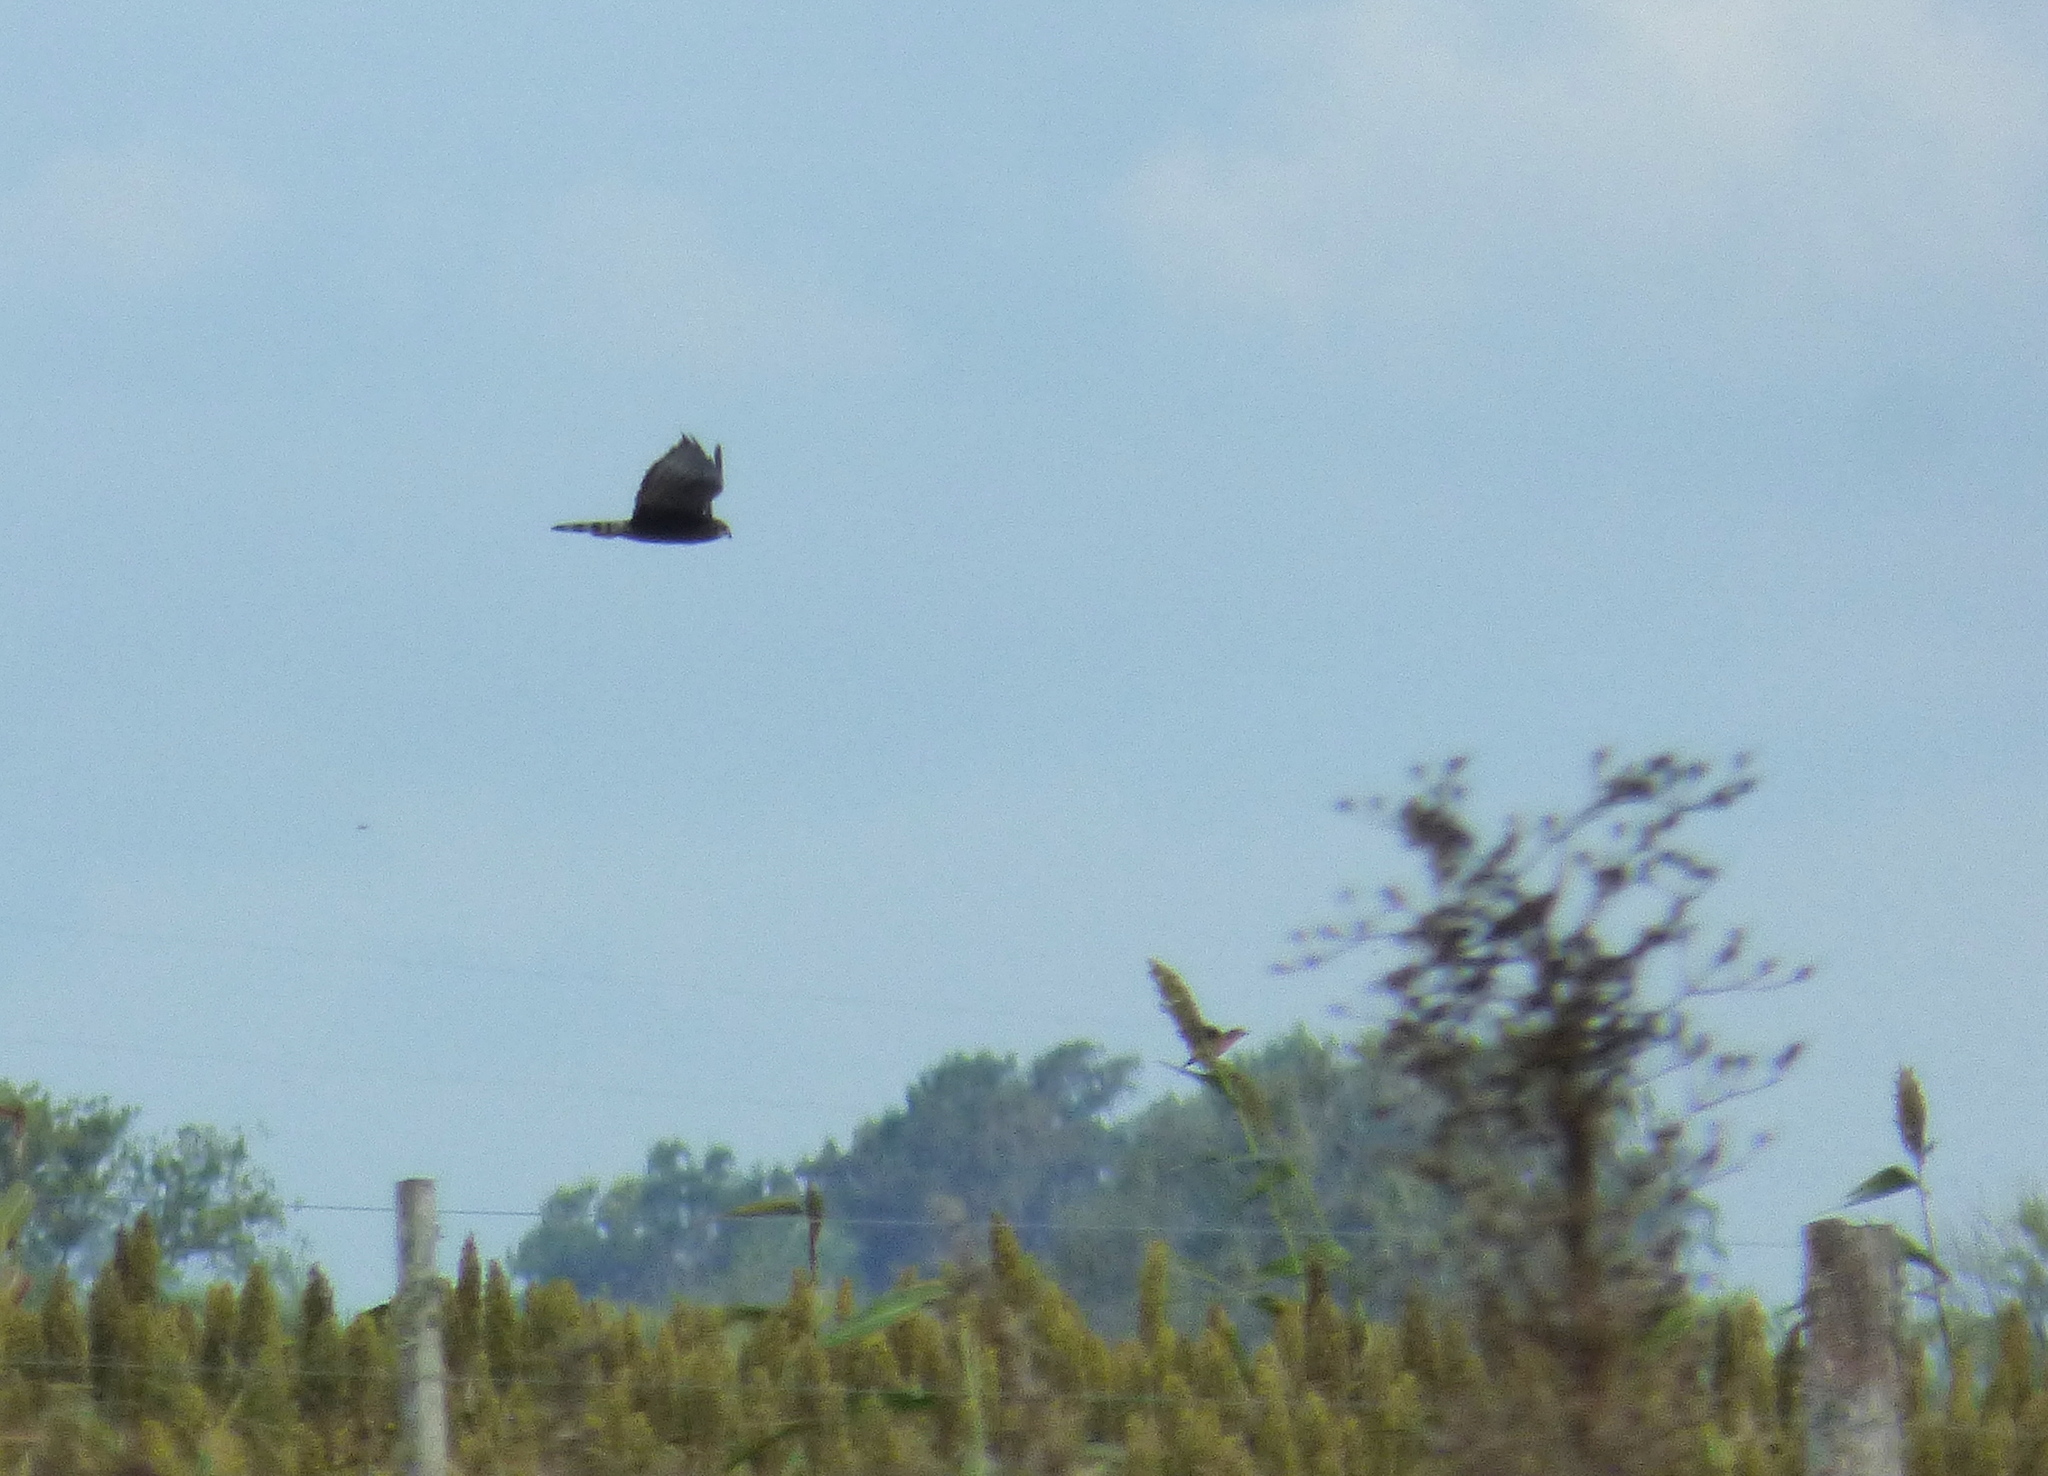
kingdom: Animalia
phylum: Chordata
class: Aves
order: Accipitriformes
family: Accipitridae
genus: Circus
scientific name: Circus buffoni
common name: Long-winged harrier
